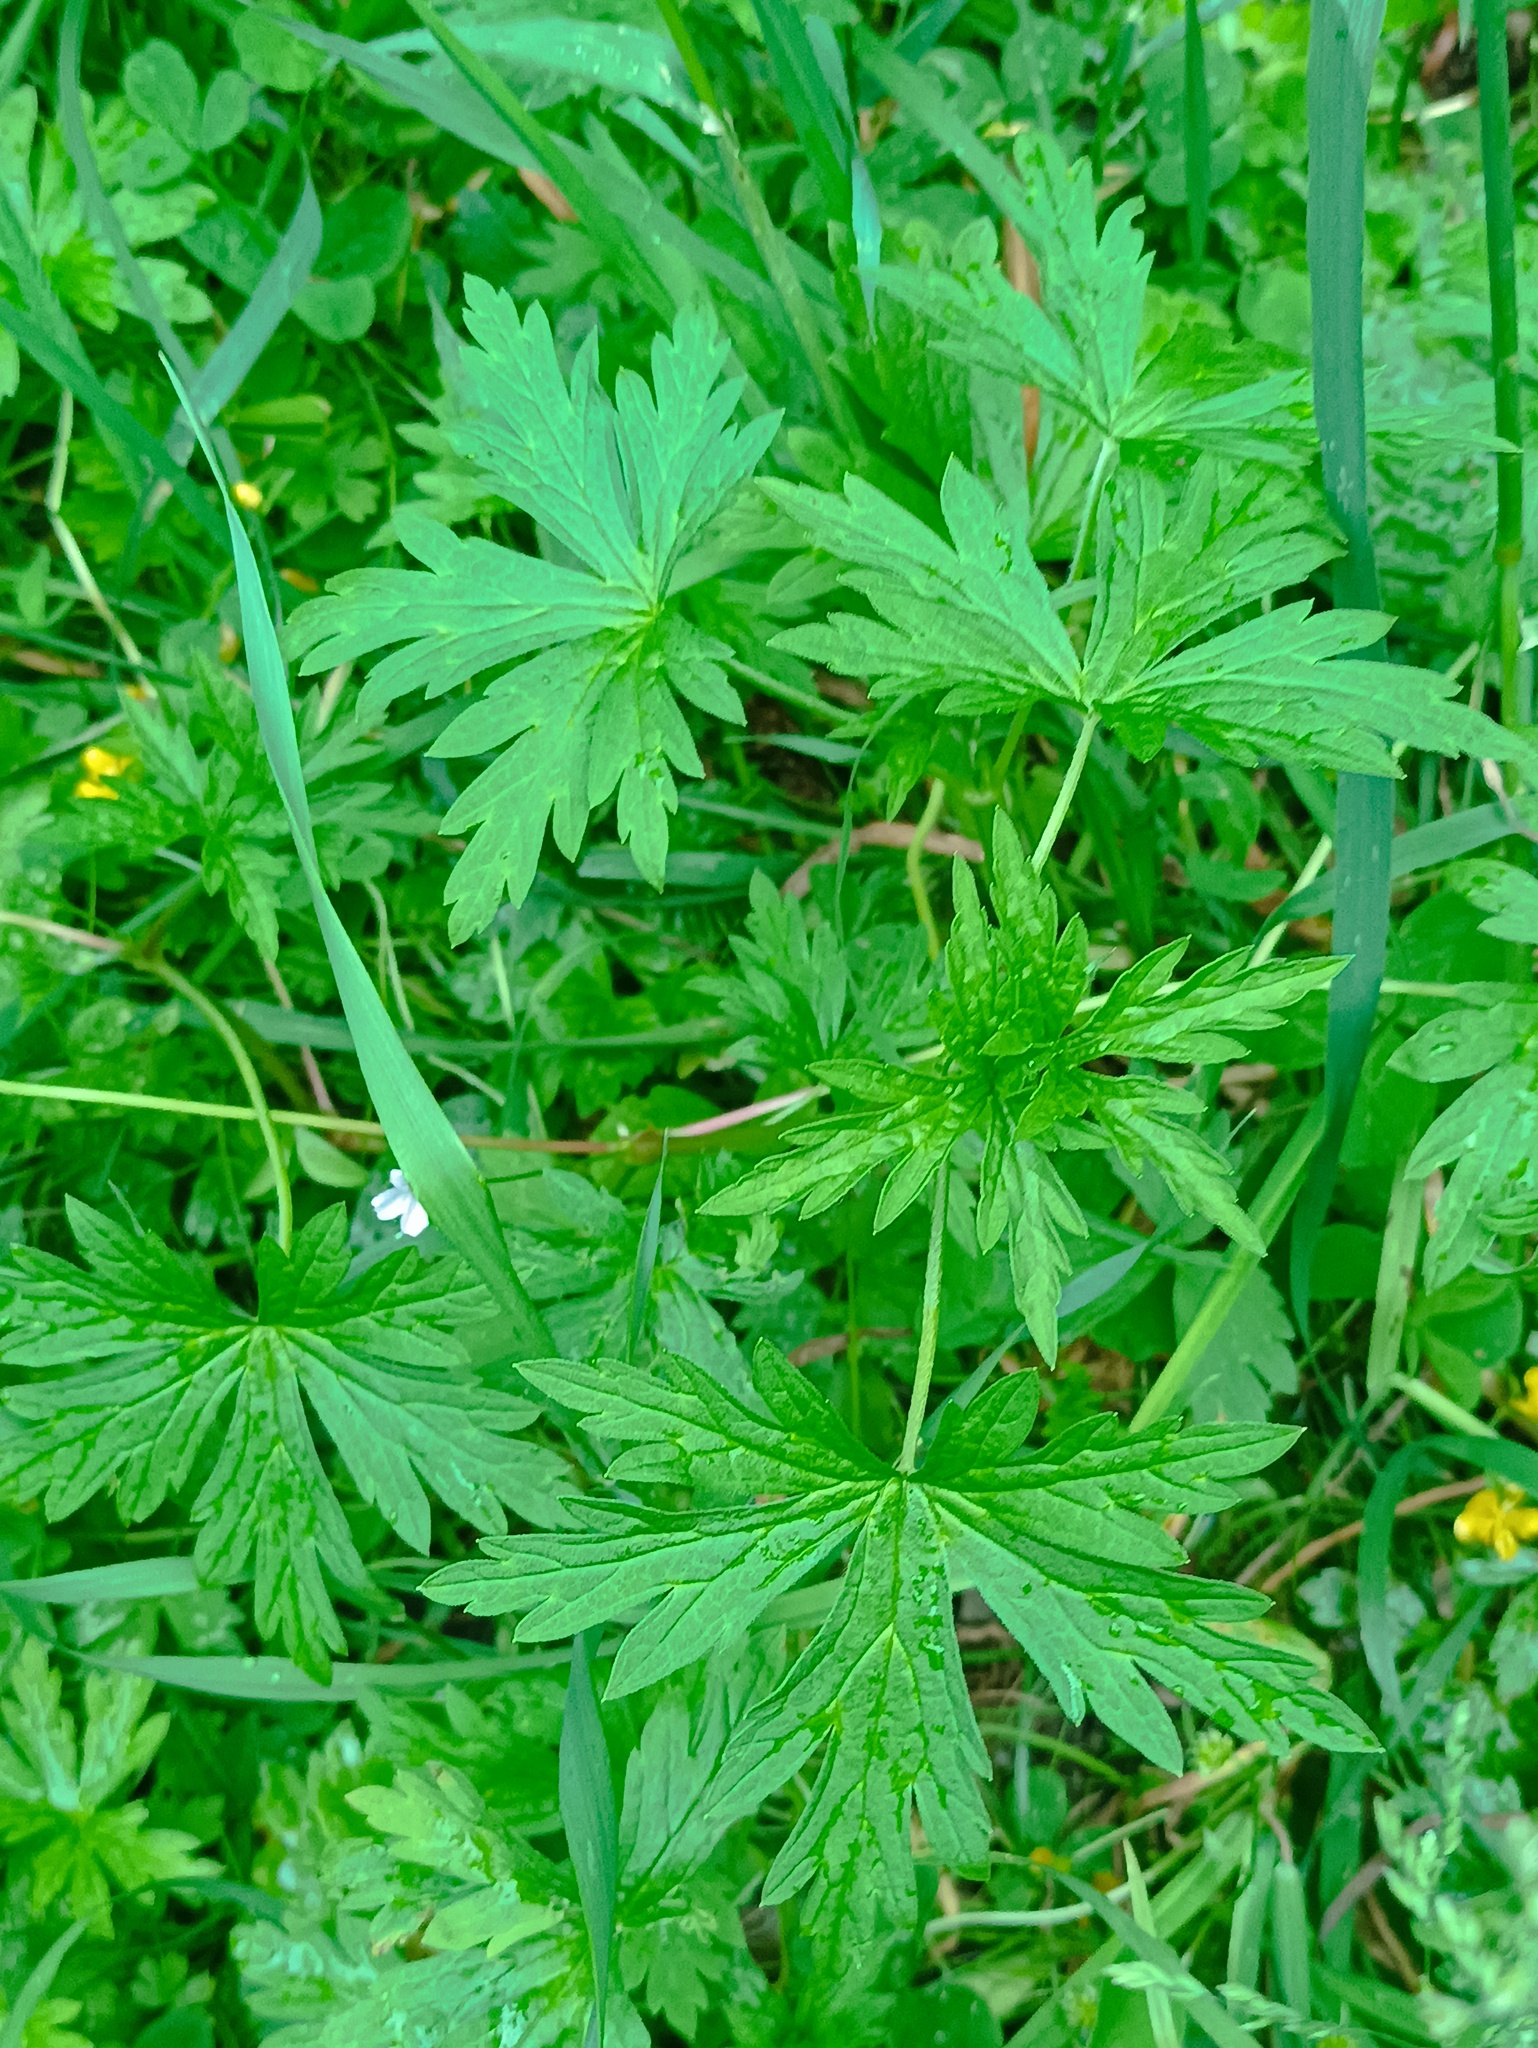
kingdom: Plantae
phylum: Tracheophyta
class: Magnoliopsida
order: Geraniales
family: Geraniaceae
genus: Geranium
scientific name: Geranium sibiricum
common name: Siberian crane's-bill
